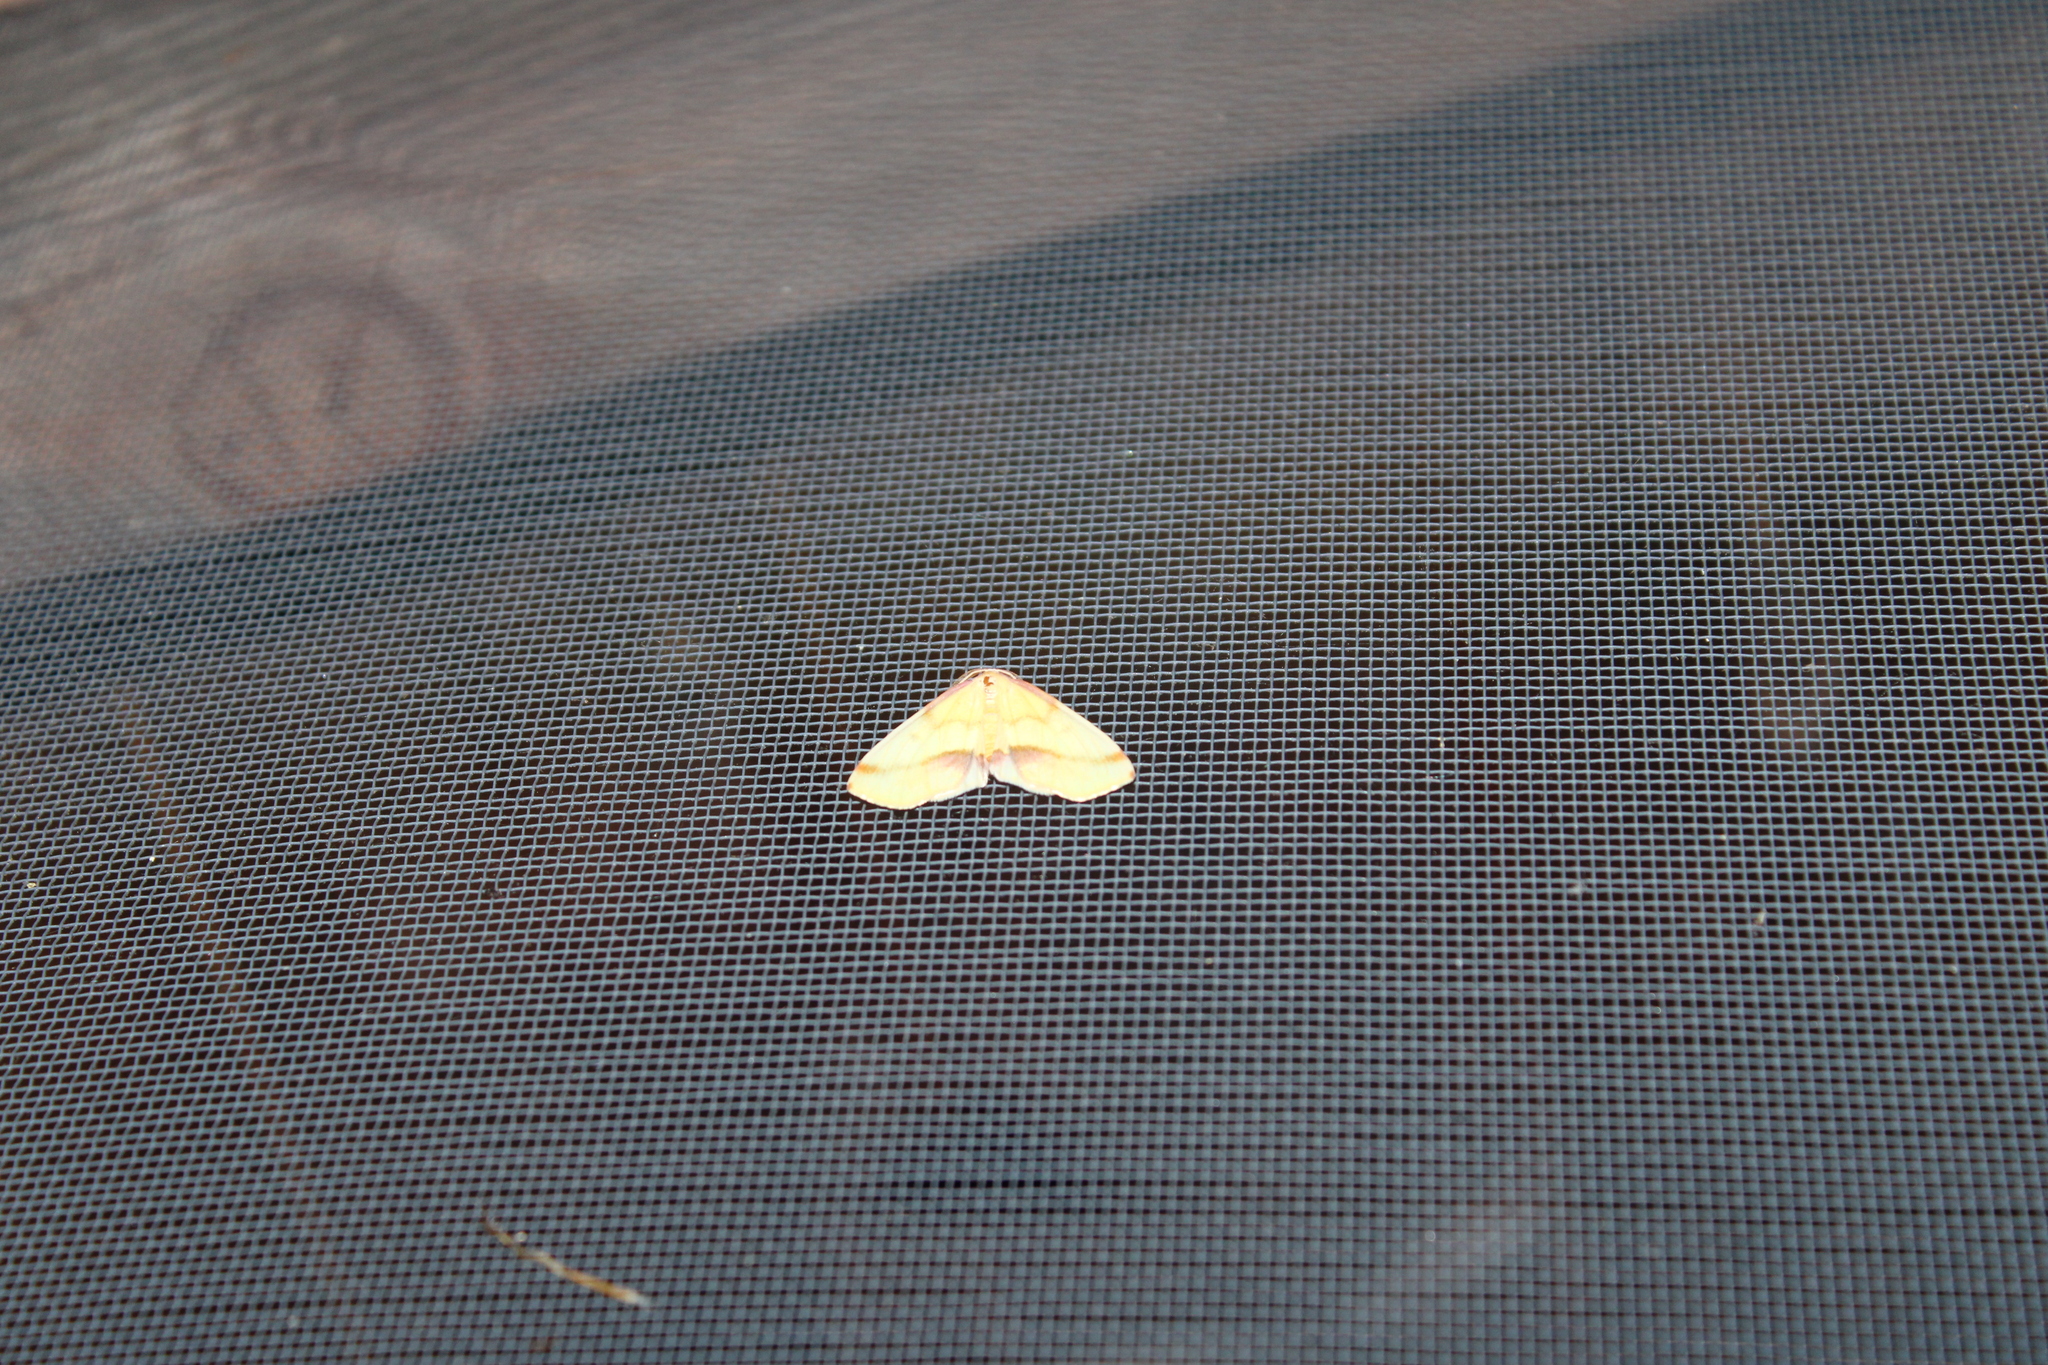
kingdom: Animalia
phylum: Arthropoda
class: Insecta
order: Lepidoptera
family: Geometridae
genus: Plagodis
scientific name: Plagodis serinaria
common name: Lemon plagodis
